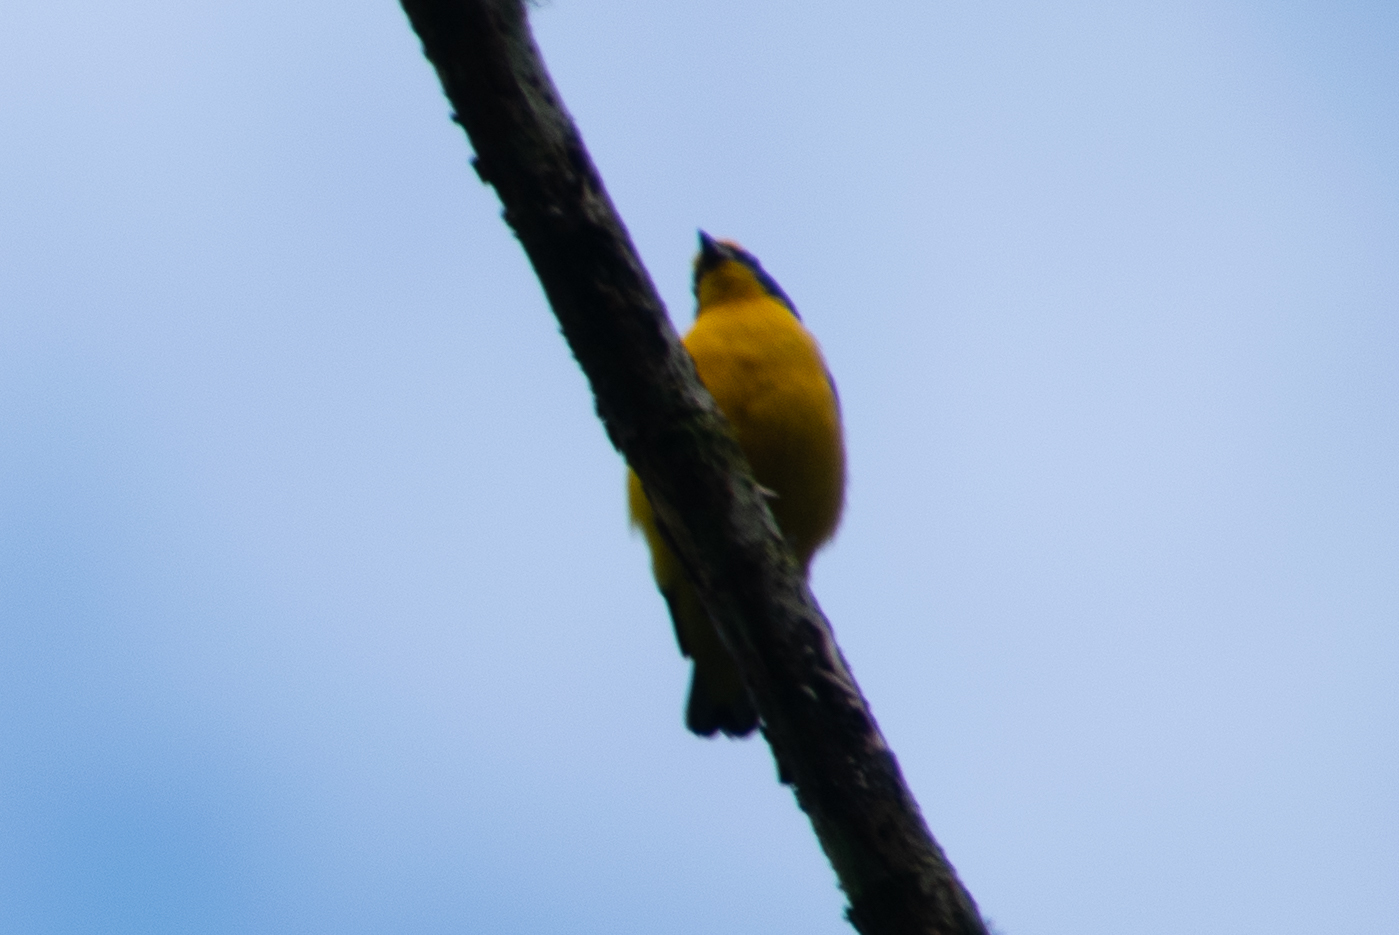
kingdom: Animalia
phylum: Chordata
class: Aves
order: Passeriformes
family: Fringillidae
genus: Euphonia
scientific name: Euphonia laniirostris
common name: Thick-billed euphonia
